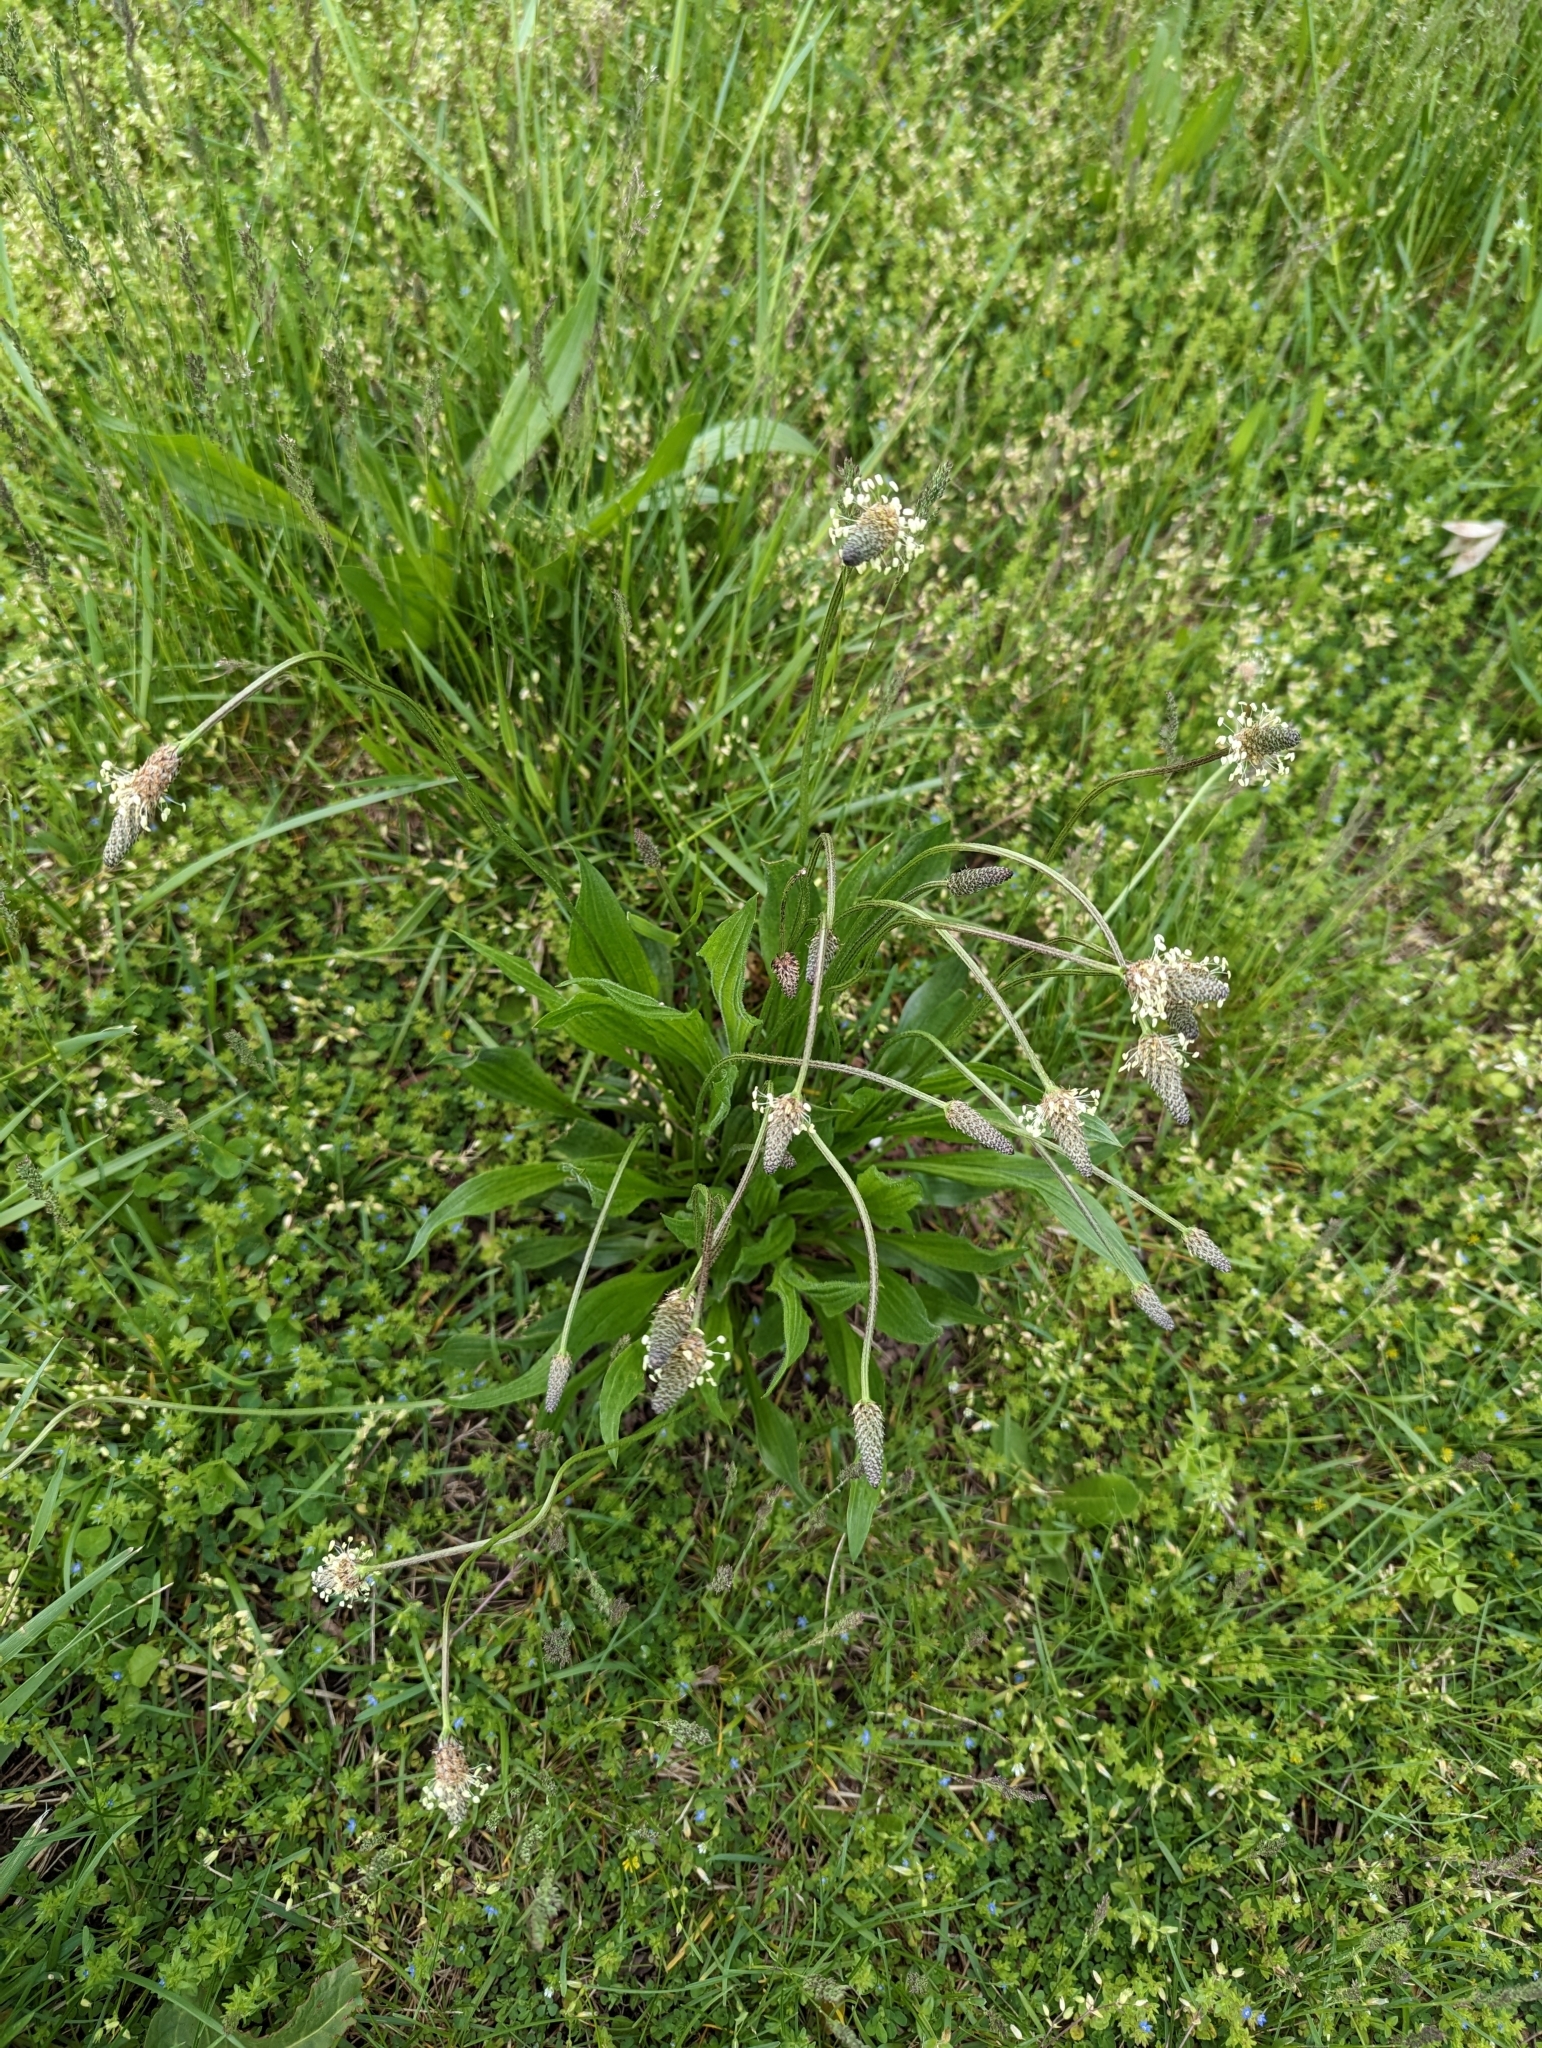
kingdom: Plantae
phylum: Tracheophyta
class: Magnoliopsida
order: Lamiales
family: Plantaginaceae
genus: Plantago
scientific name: Plantago lanceolata
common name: Ribwort plantain
